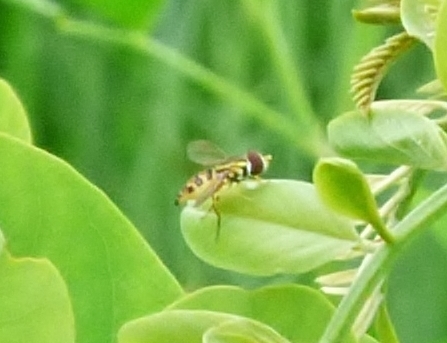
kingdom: Animalia
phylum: Arthropoda
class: Insecta
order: Diptera
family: Syrphidae
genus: Toxomerus
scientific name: Toxomerus geminatus
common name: Eastern calligrapher
